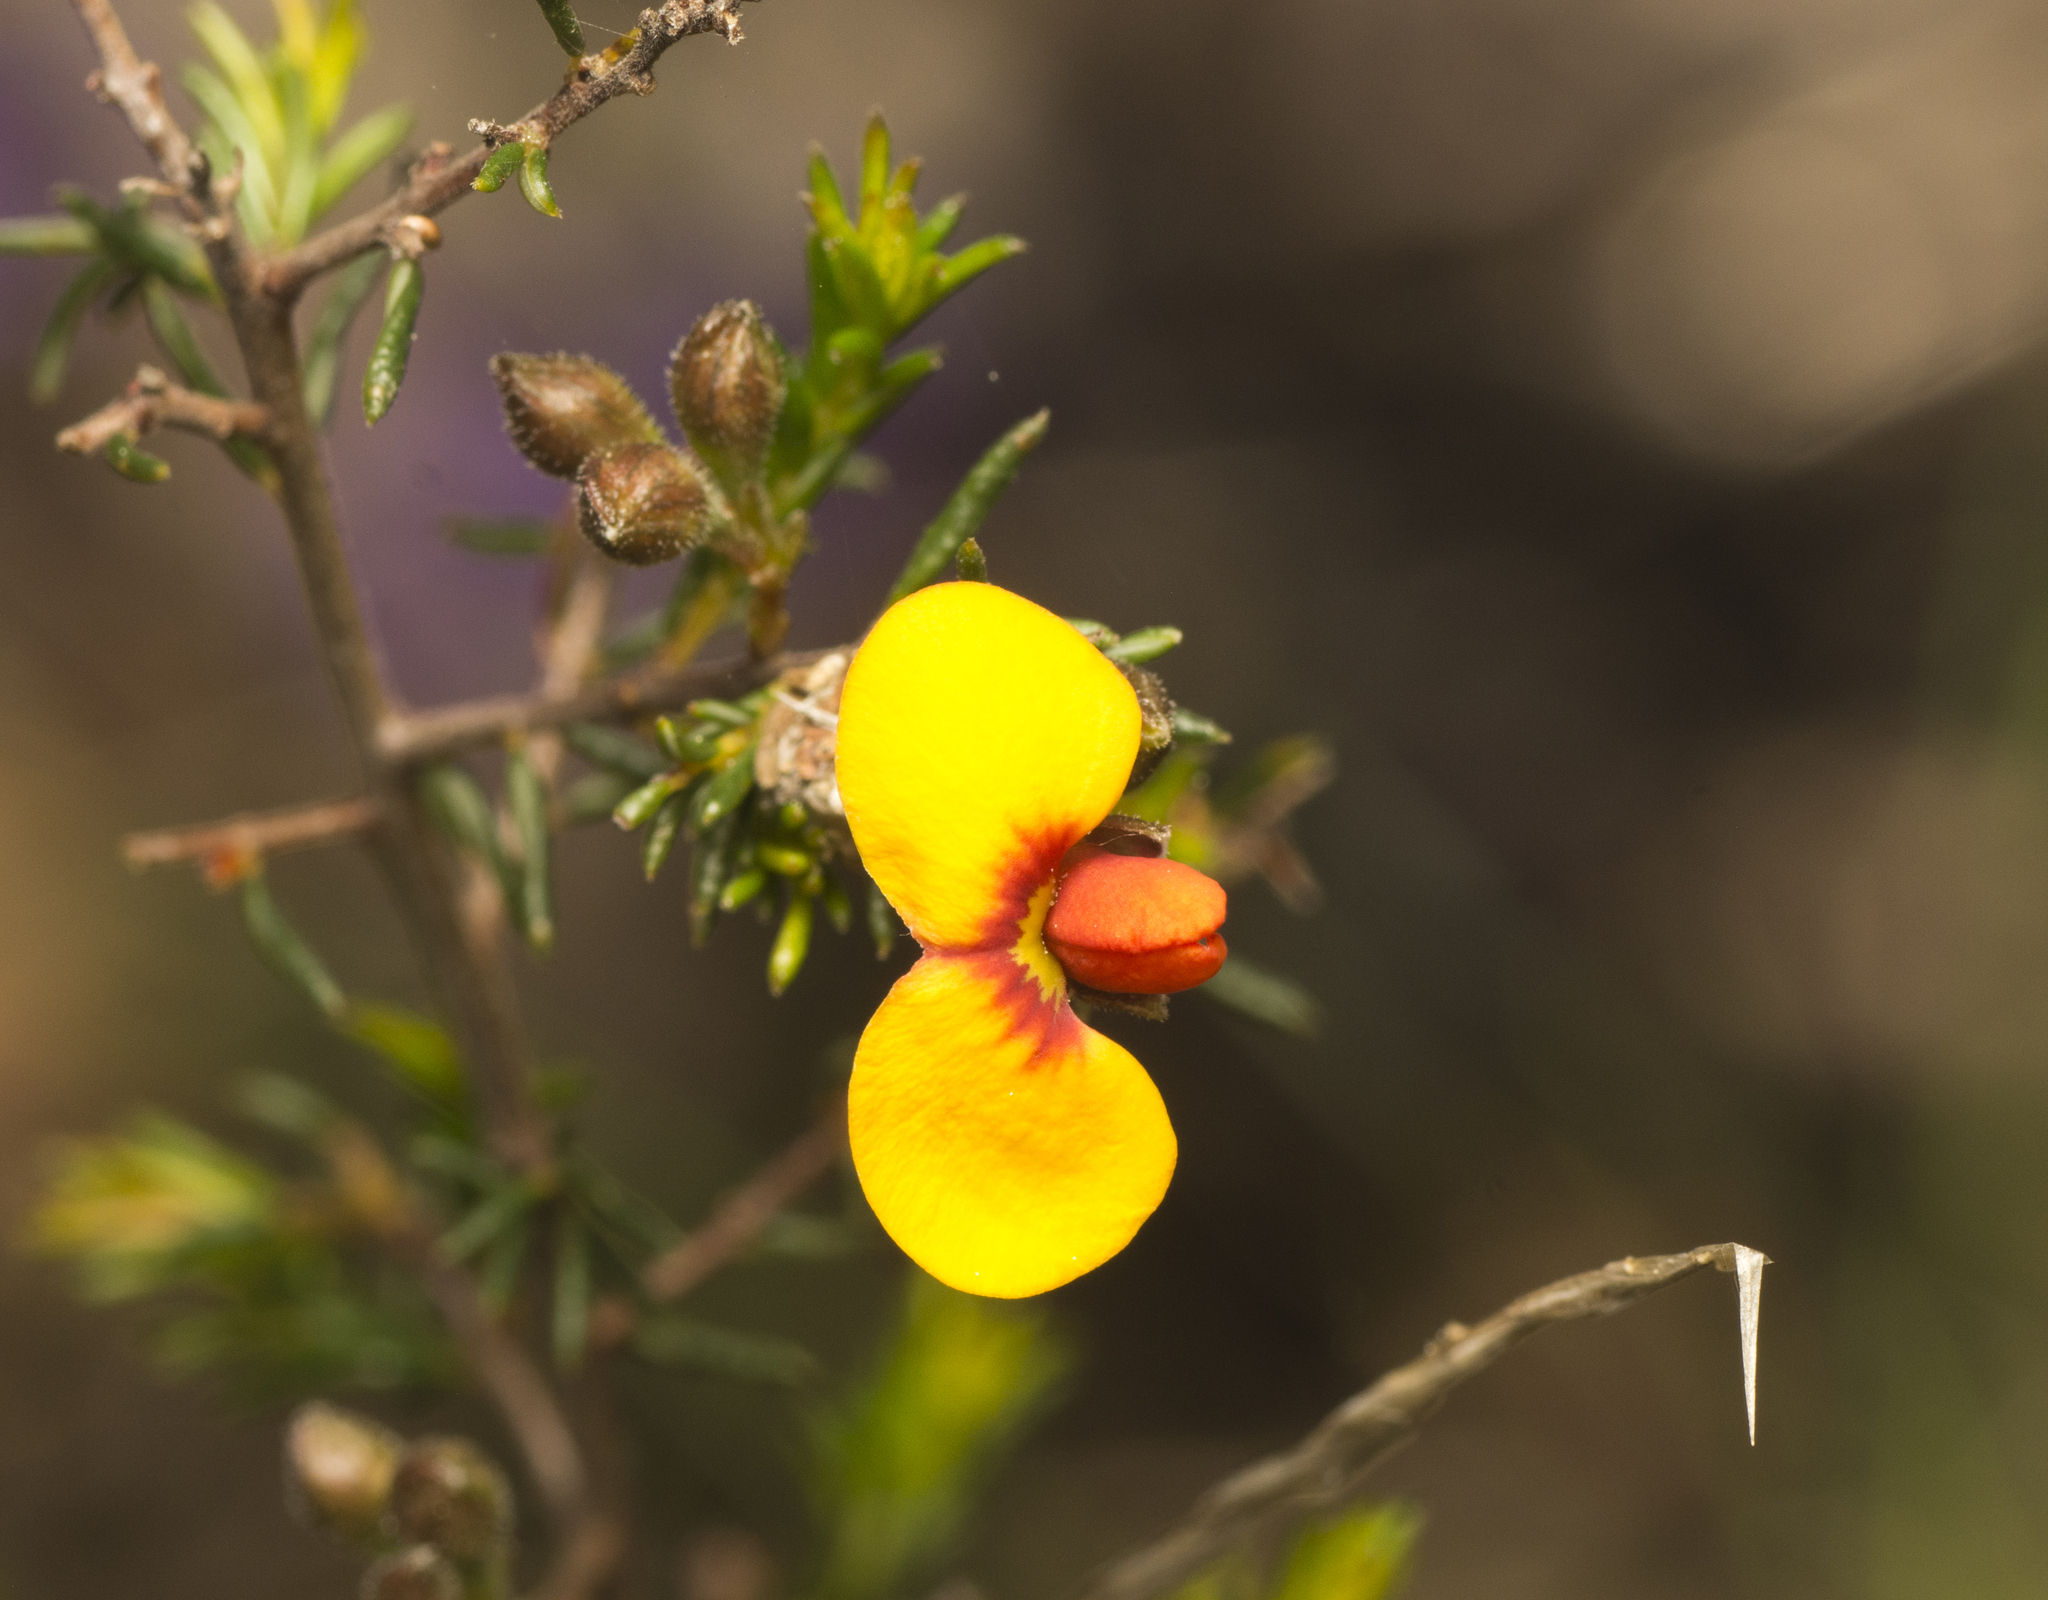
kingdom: Plantae
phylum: Tracheophyta
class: Magnoliopsida
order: Fabales
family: Fabaceae
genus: Dillwynia
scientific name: Dillwynia phylicoides
